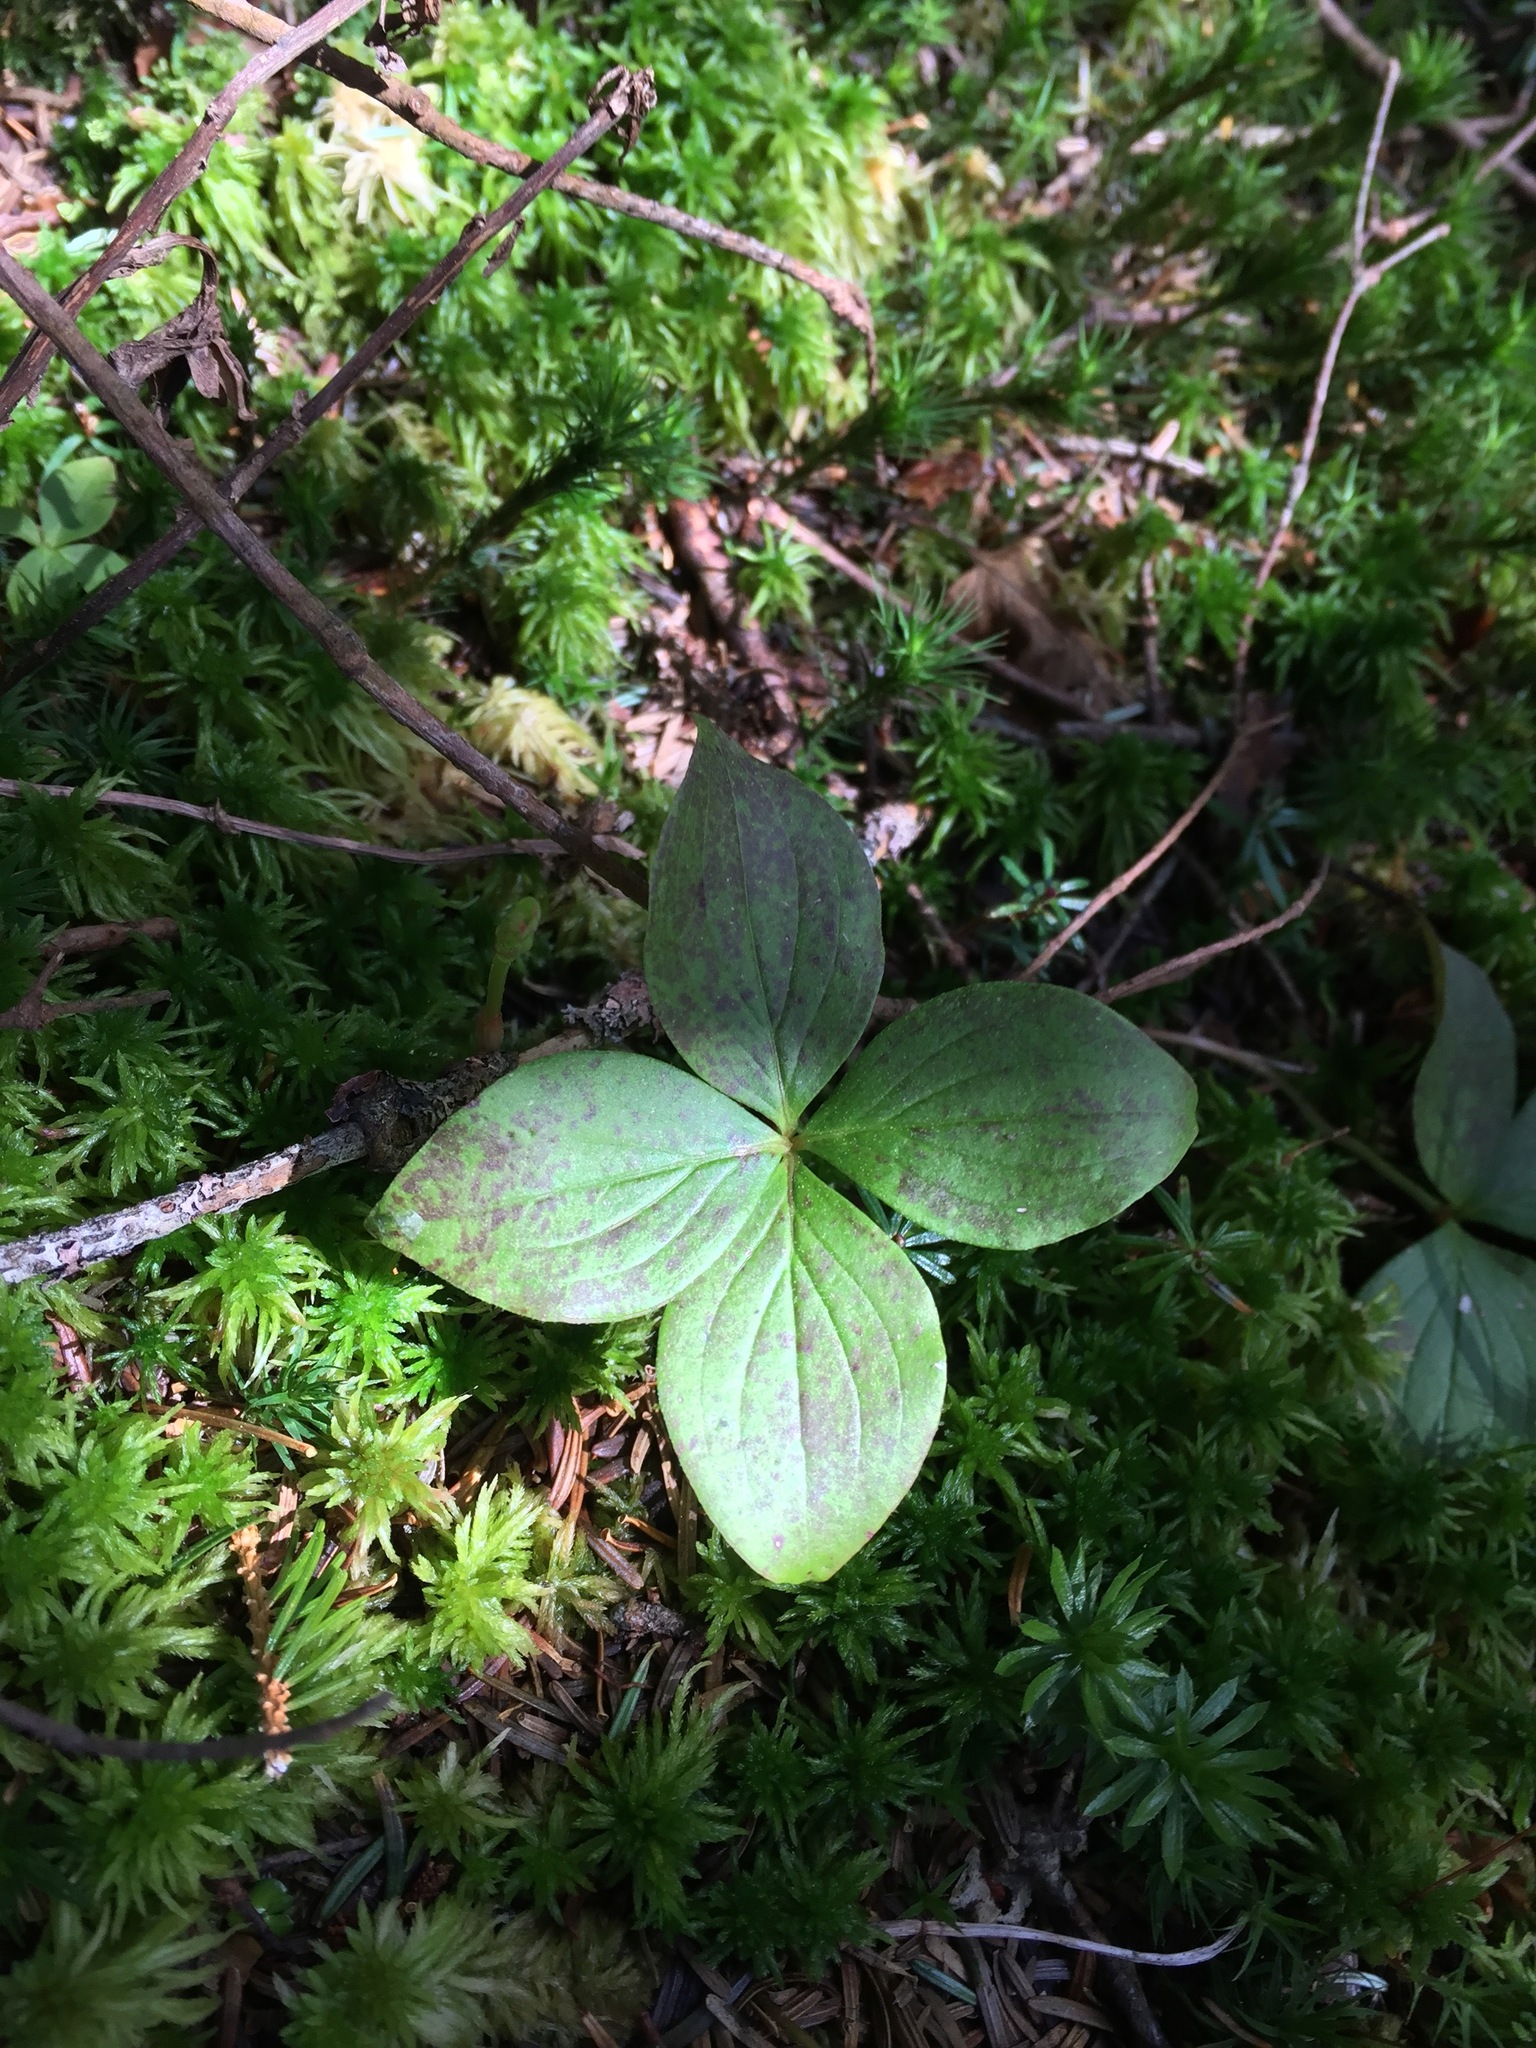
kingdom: Plantae
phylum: Tracheophyta
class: Magnoliopsida
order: Cornales
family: Cornaceae
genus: Cornus
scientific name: Cornus canadensis
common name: Creeping dogwood
